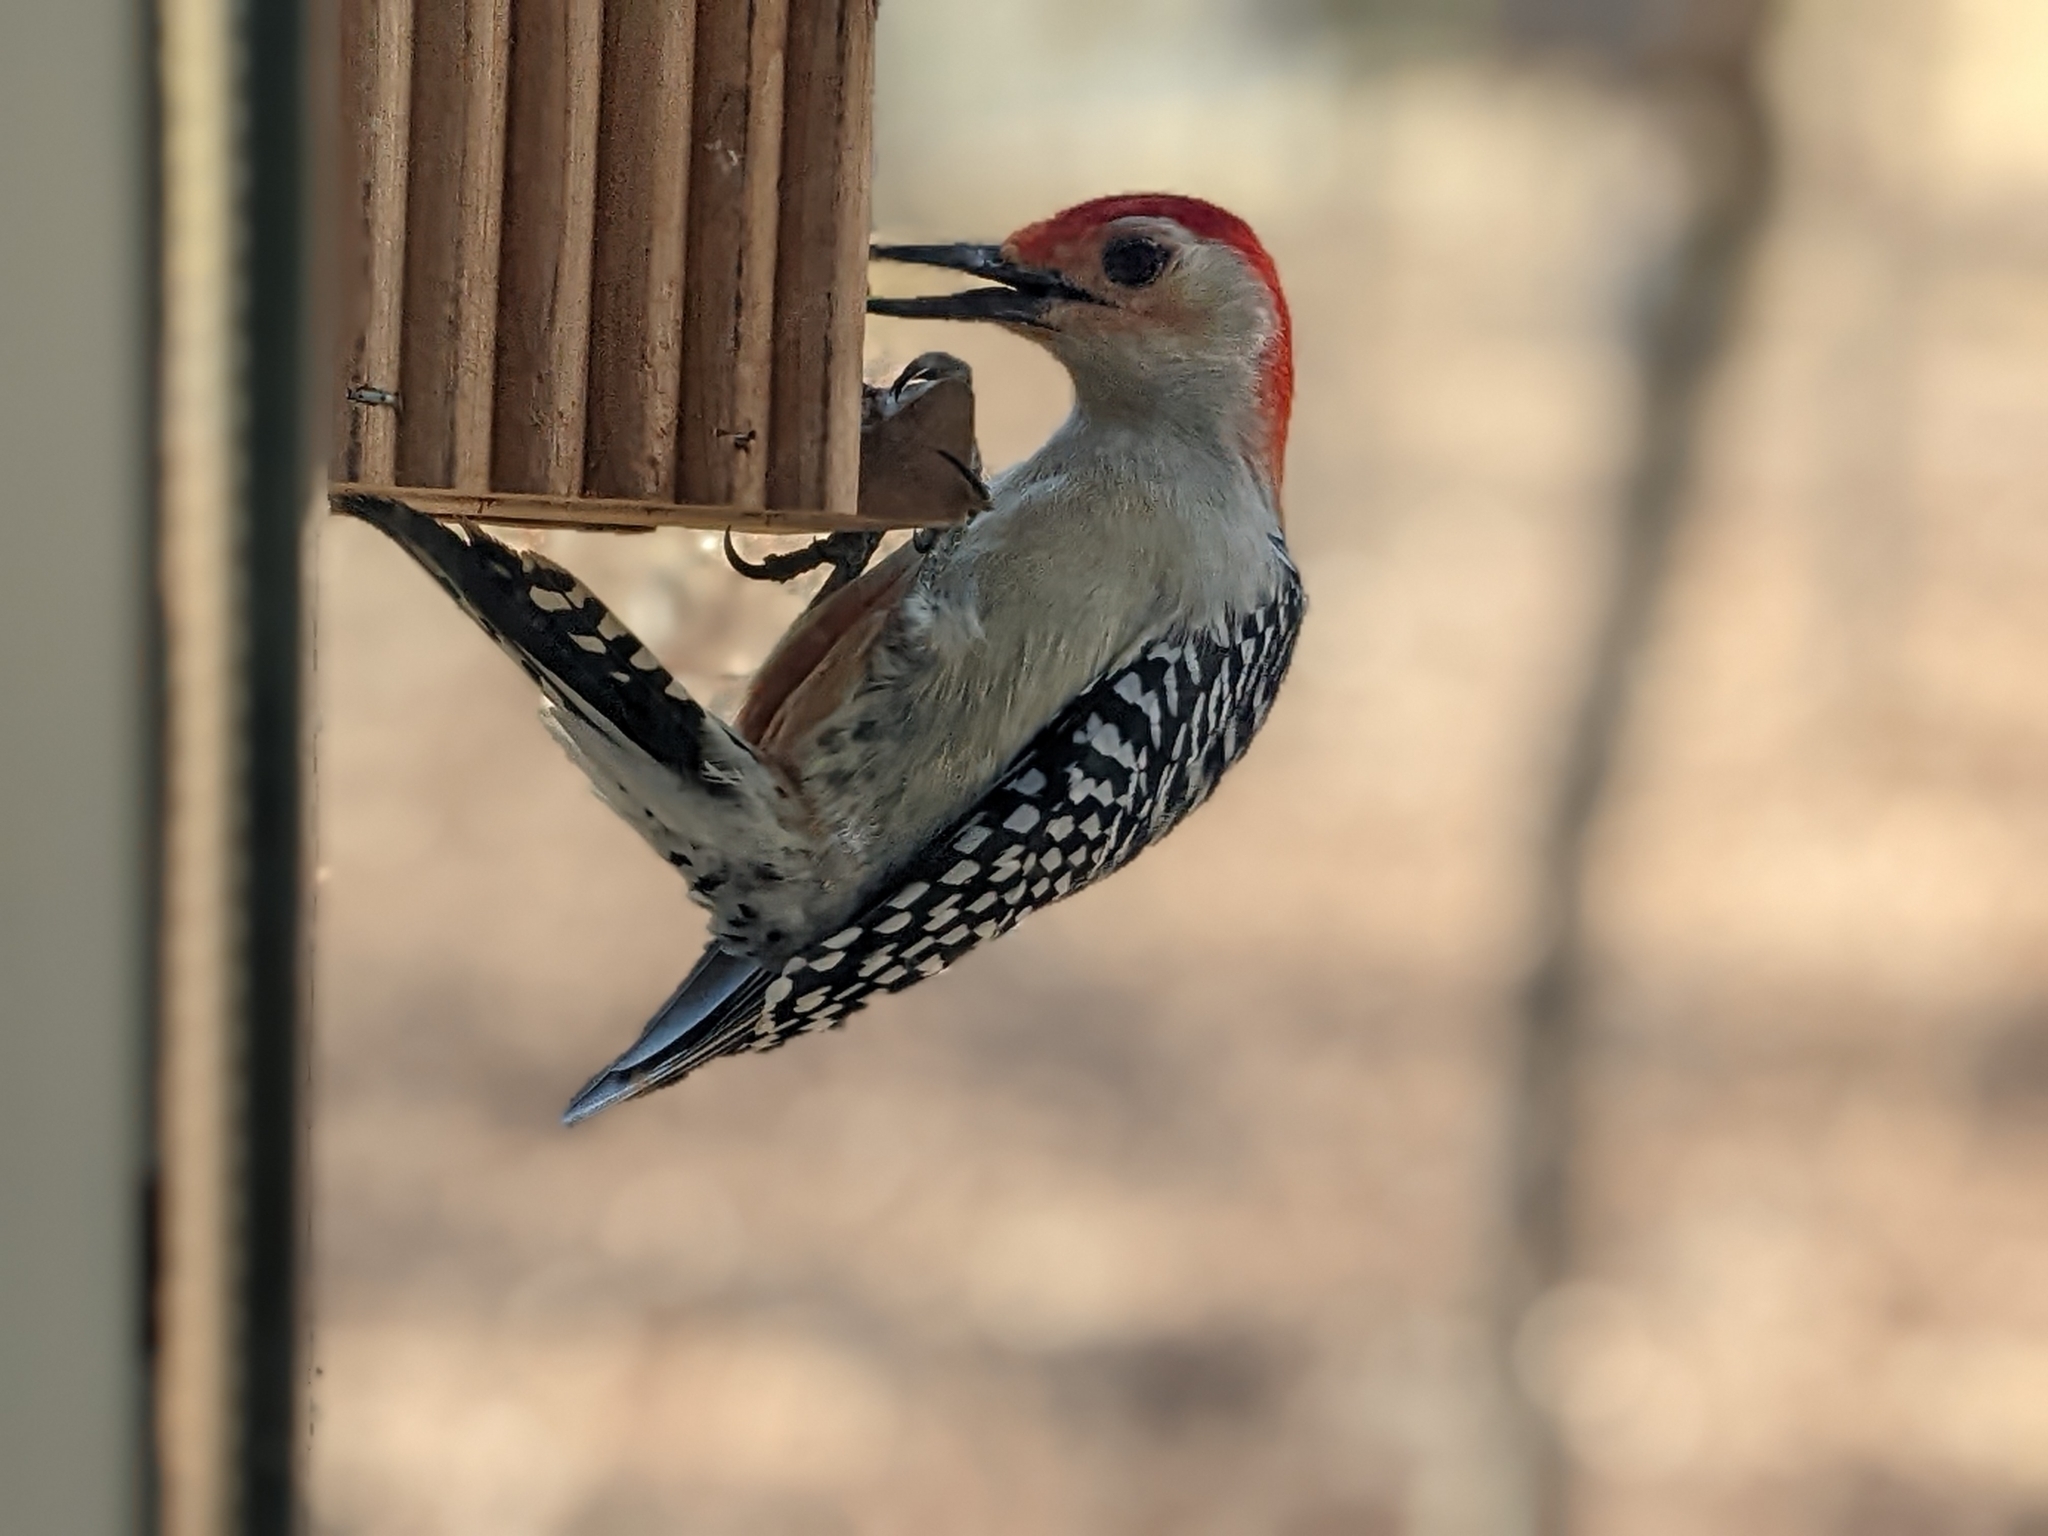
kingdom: Animalia
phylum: Chordata
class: Aves
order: Piciformes
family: Picidae
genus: Melanerpes
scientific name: Melanerpes carolinus
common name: Red-bellied woodpecker
